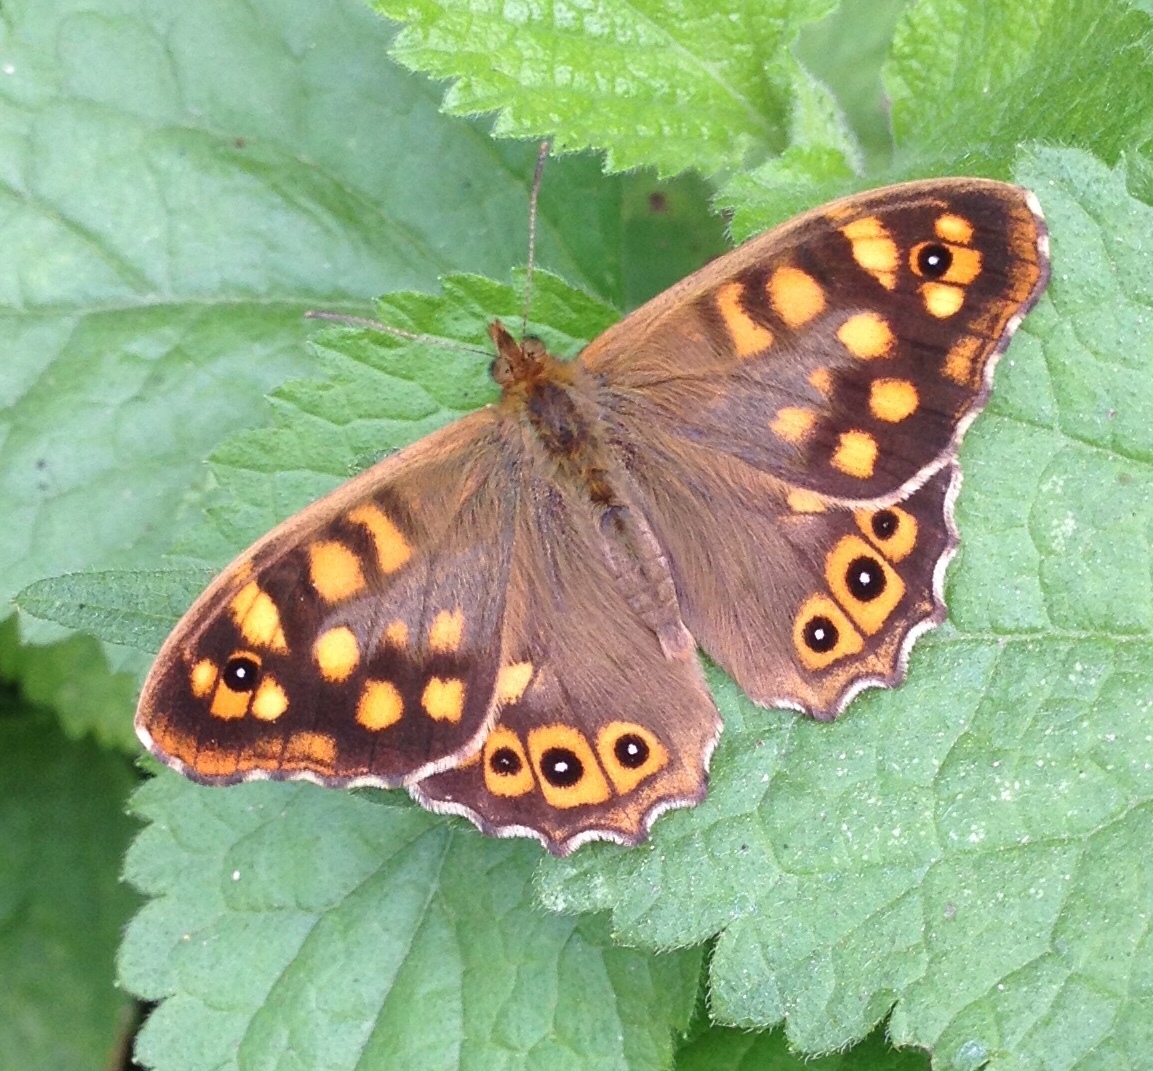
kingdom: Animalia
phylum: Arthropoda
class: Insecta
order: Lepidoptera
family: Nymphalidae
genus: Pararge
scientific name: Pararge aegeria
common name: Speckled wood
